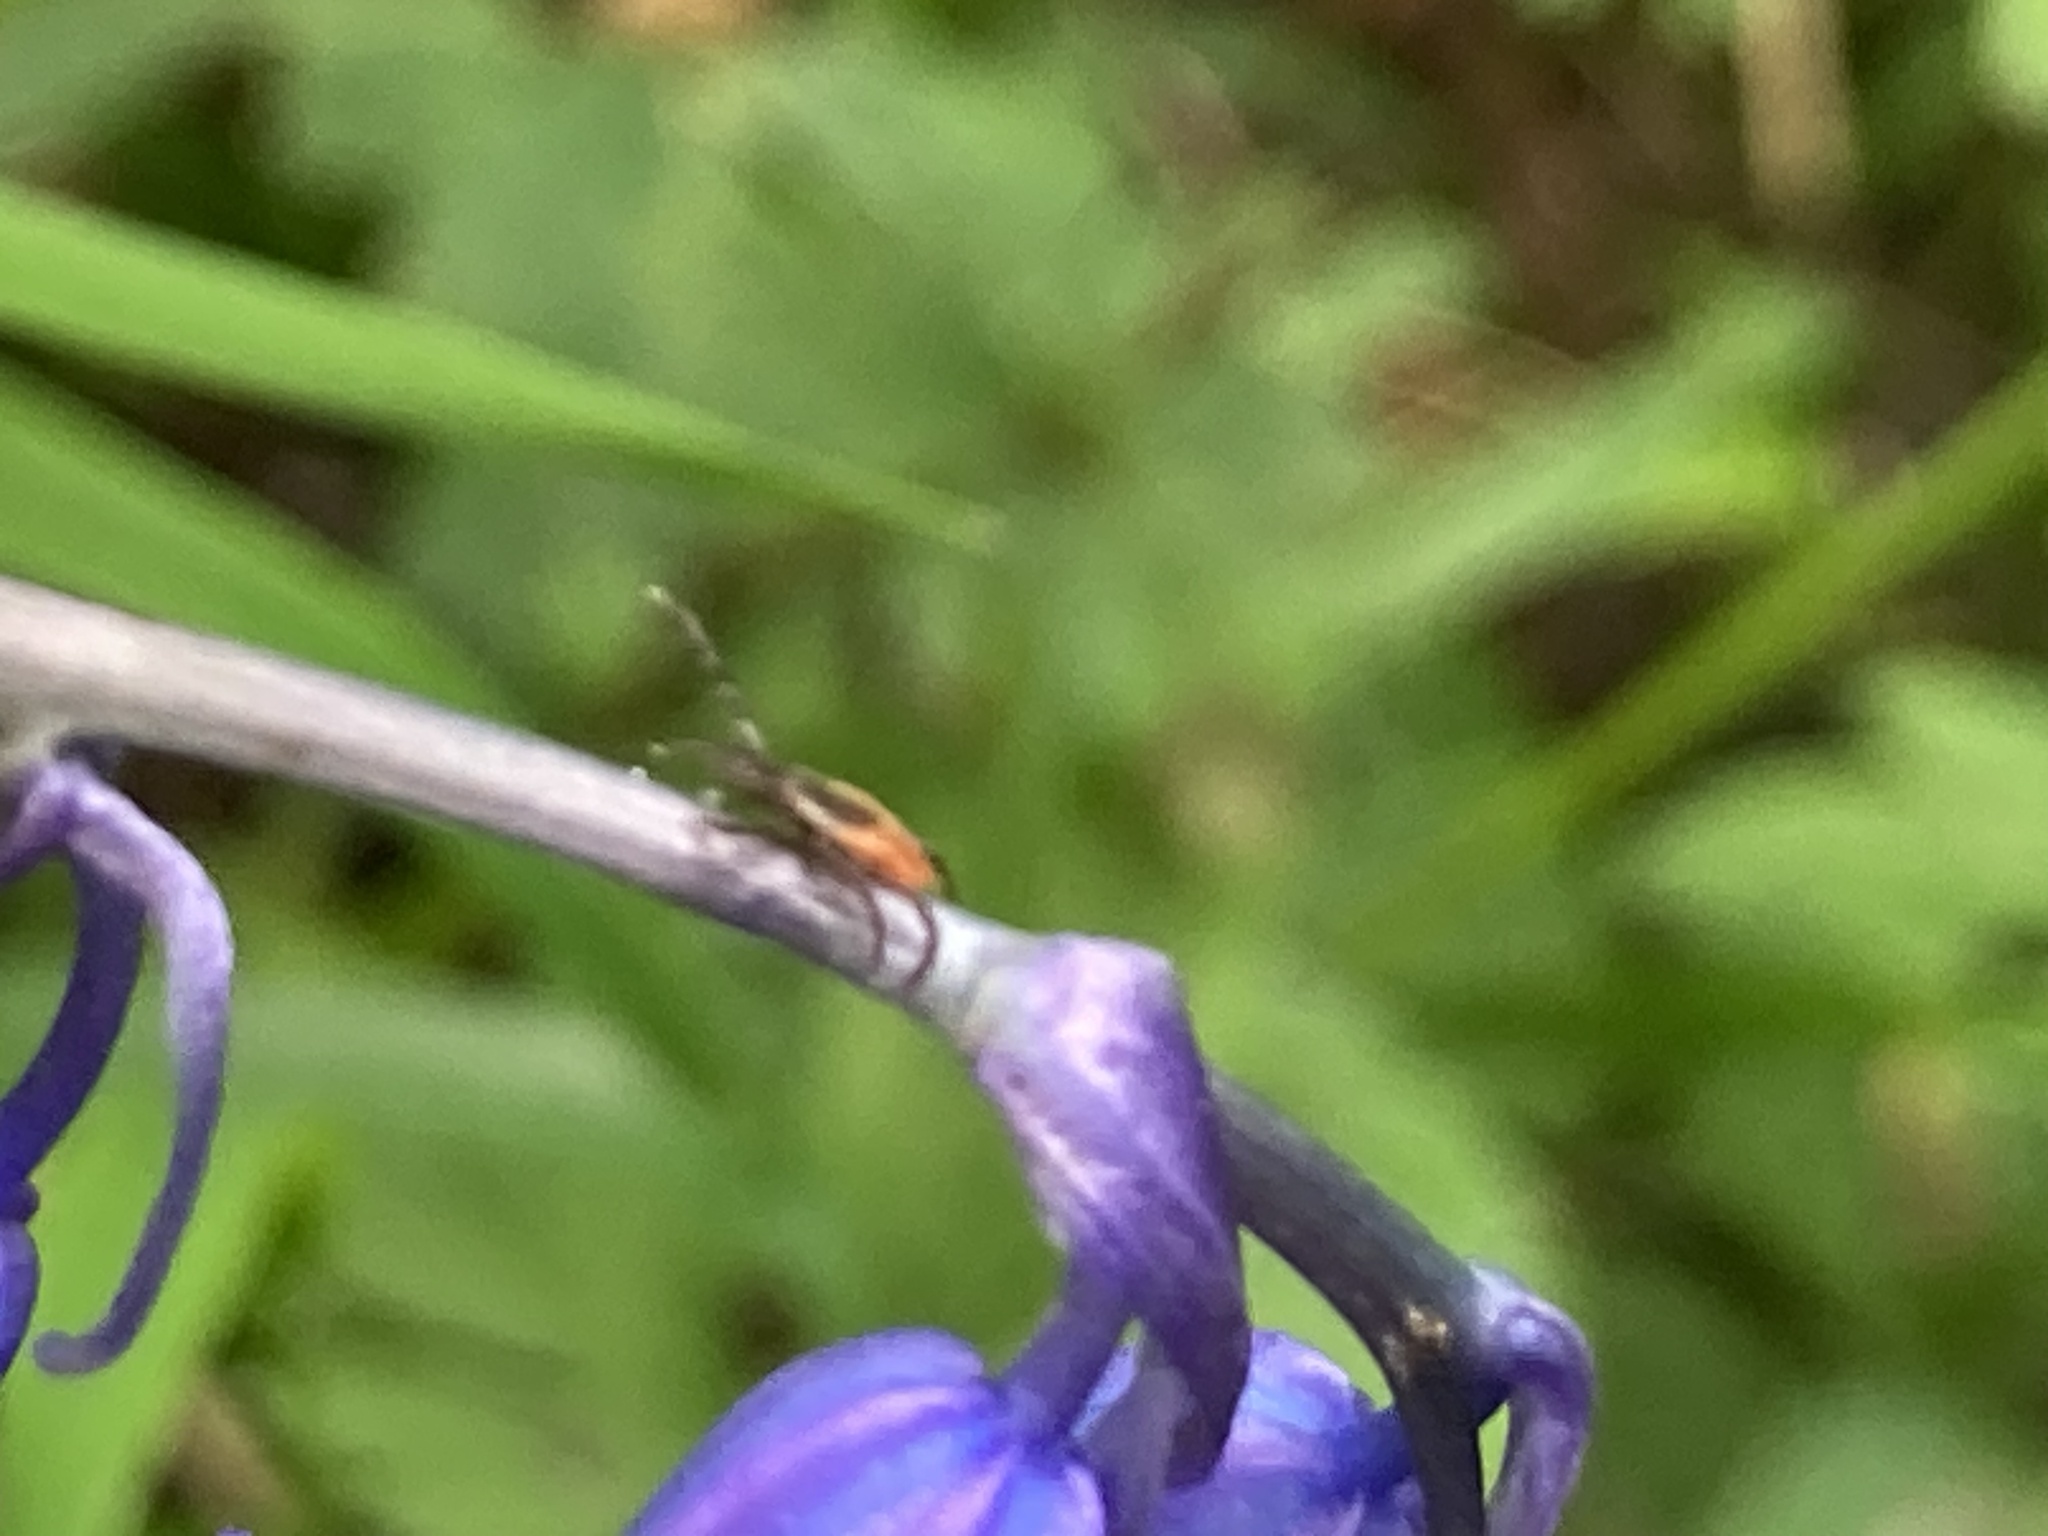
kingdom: Animalia
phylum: Arthropoda
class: Arachnida
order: Ixodida
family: Ixodidae
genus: Ixodes
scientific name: Ixodes ricinus
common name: Castor bean tick
